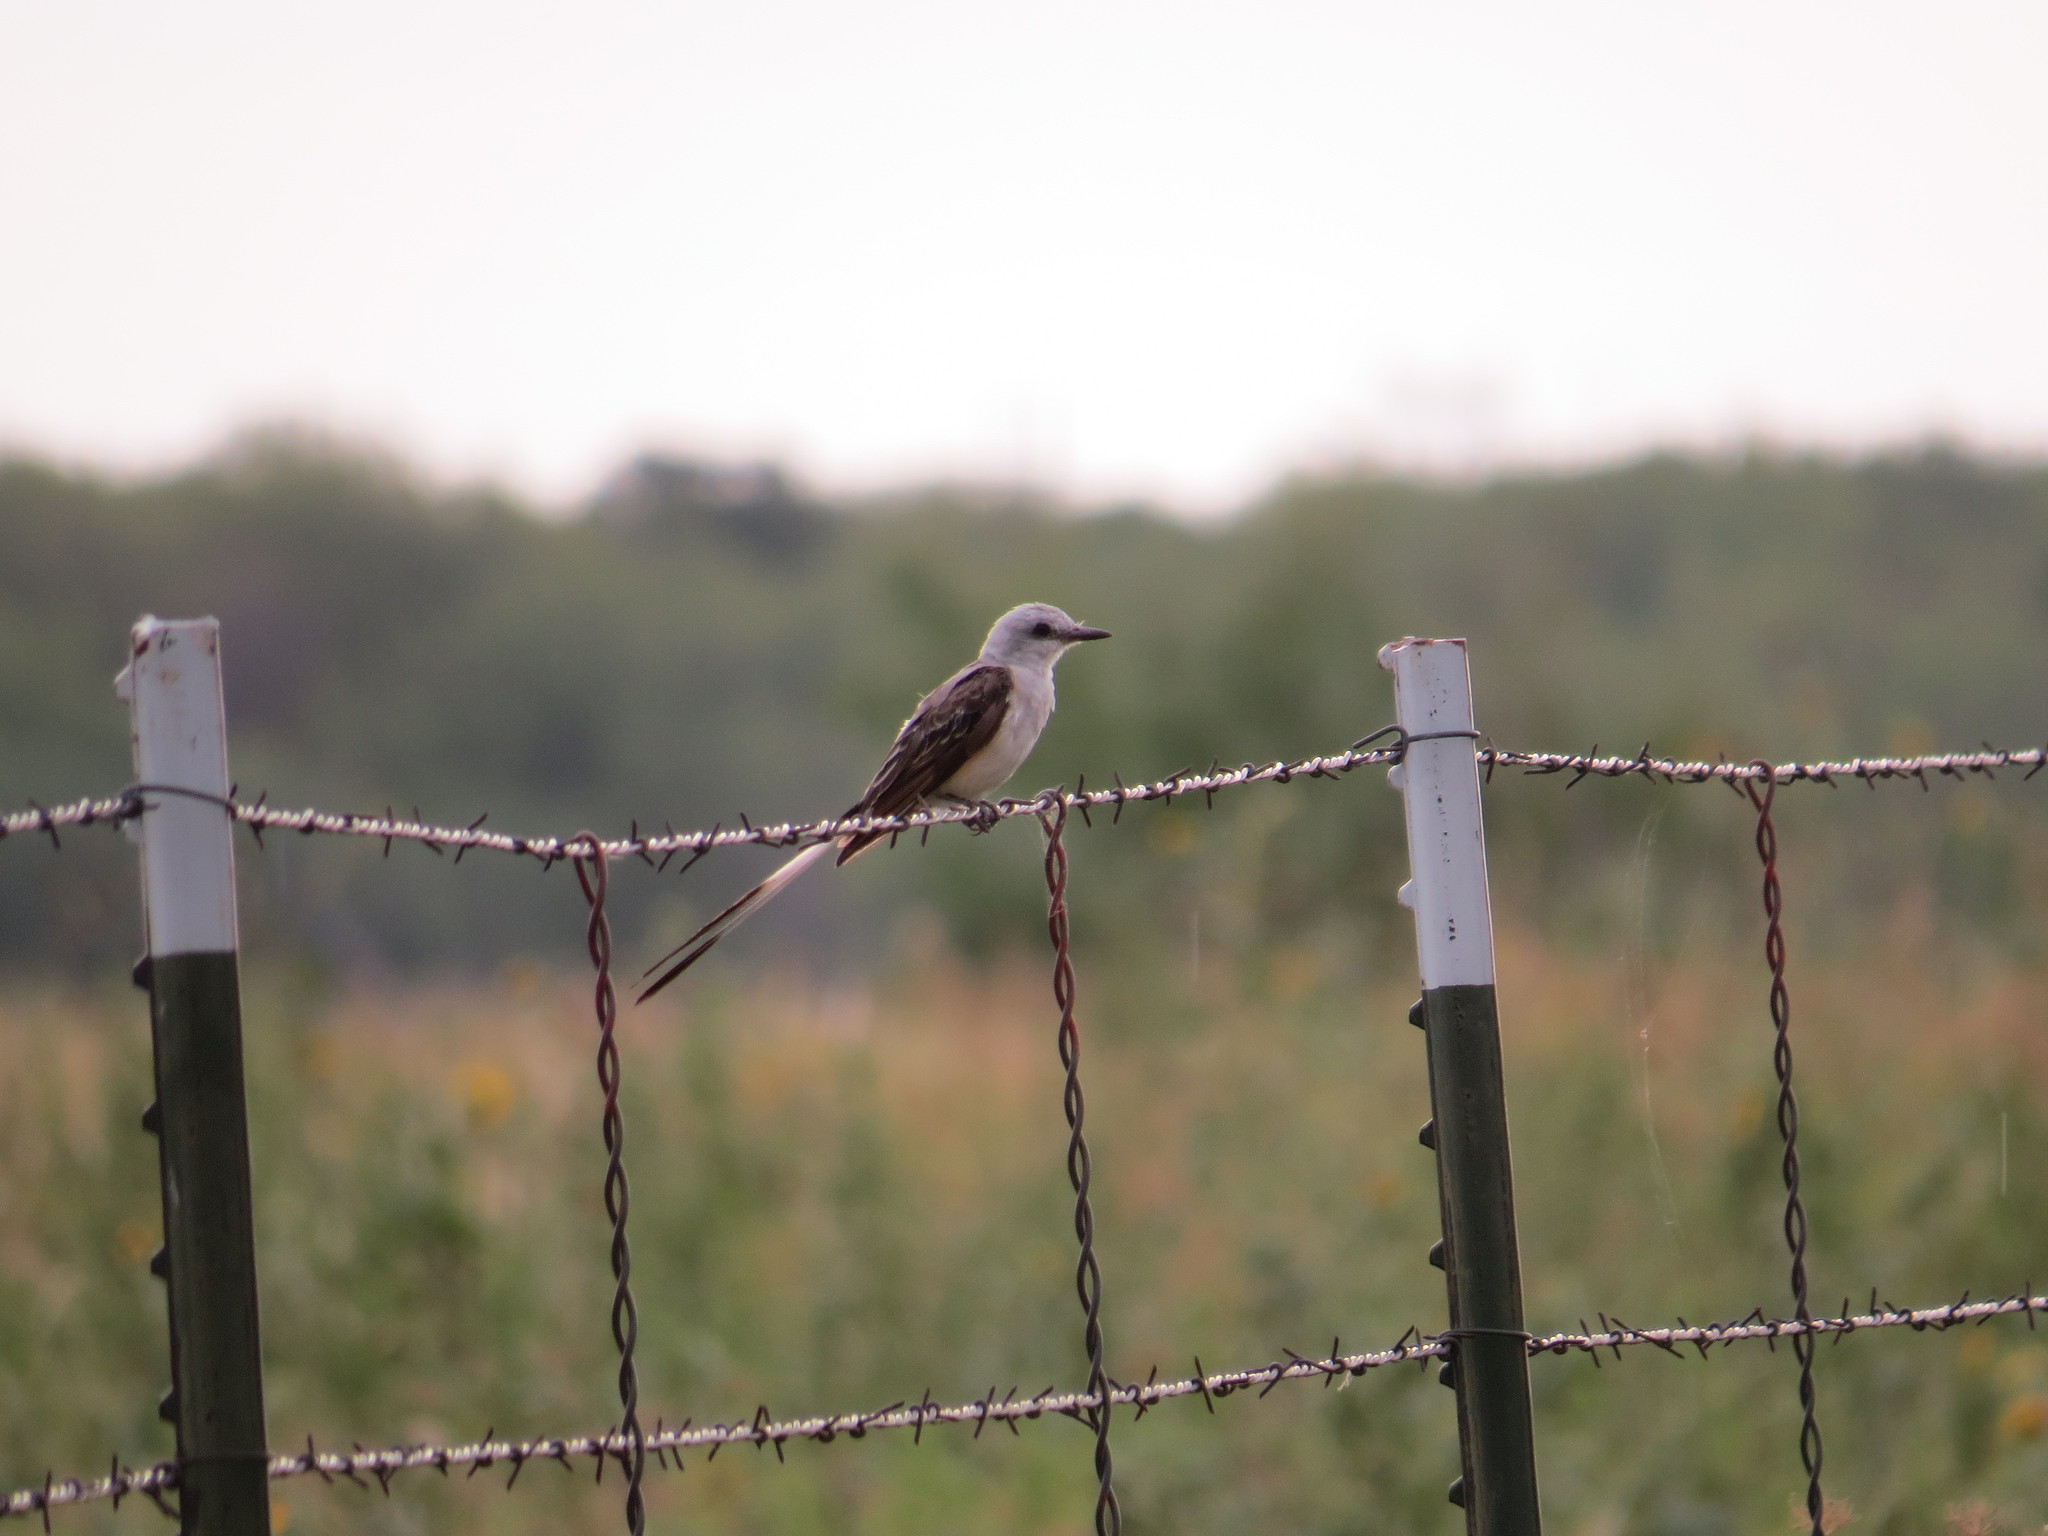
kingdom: Animalia
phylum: Chordata
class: Aves
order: Passeriformes
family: Tyrannidae
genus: Tyrannus
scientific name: Tyrannus forficatus
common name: Scissor-tailed flycatcher
